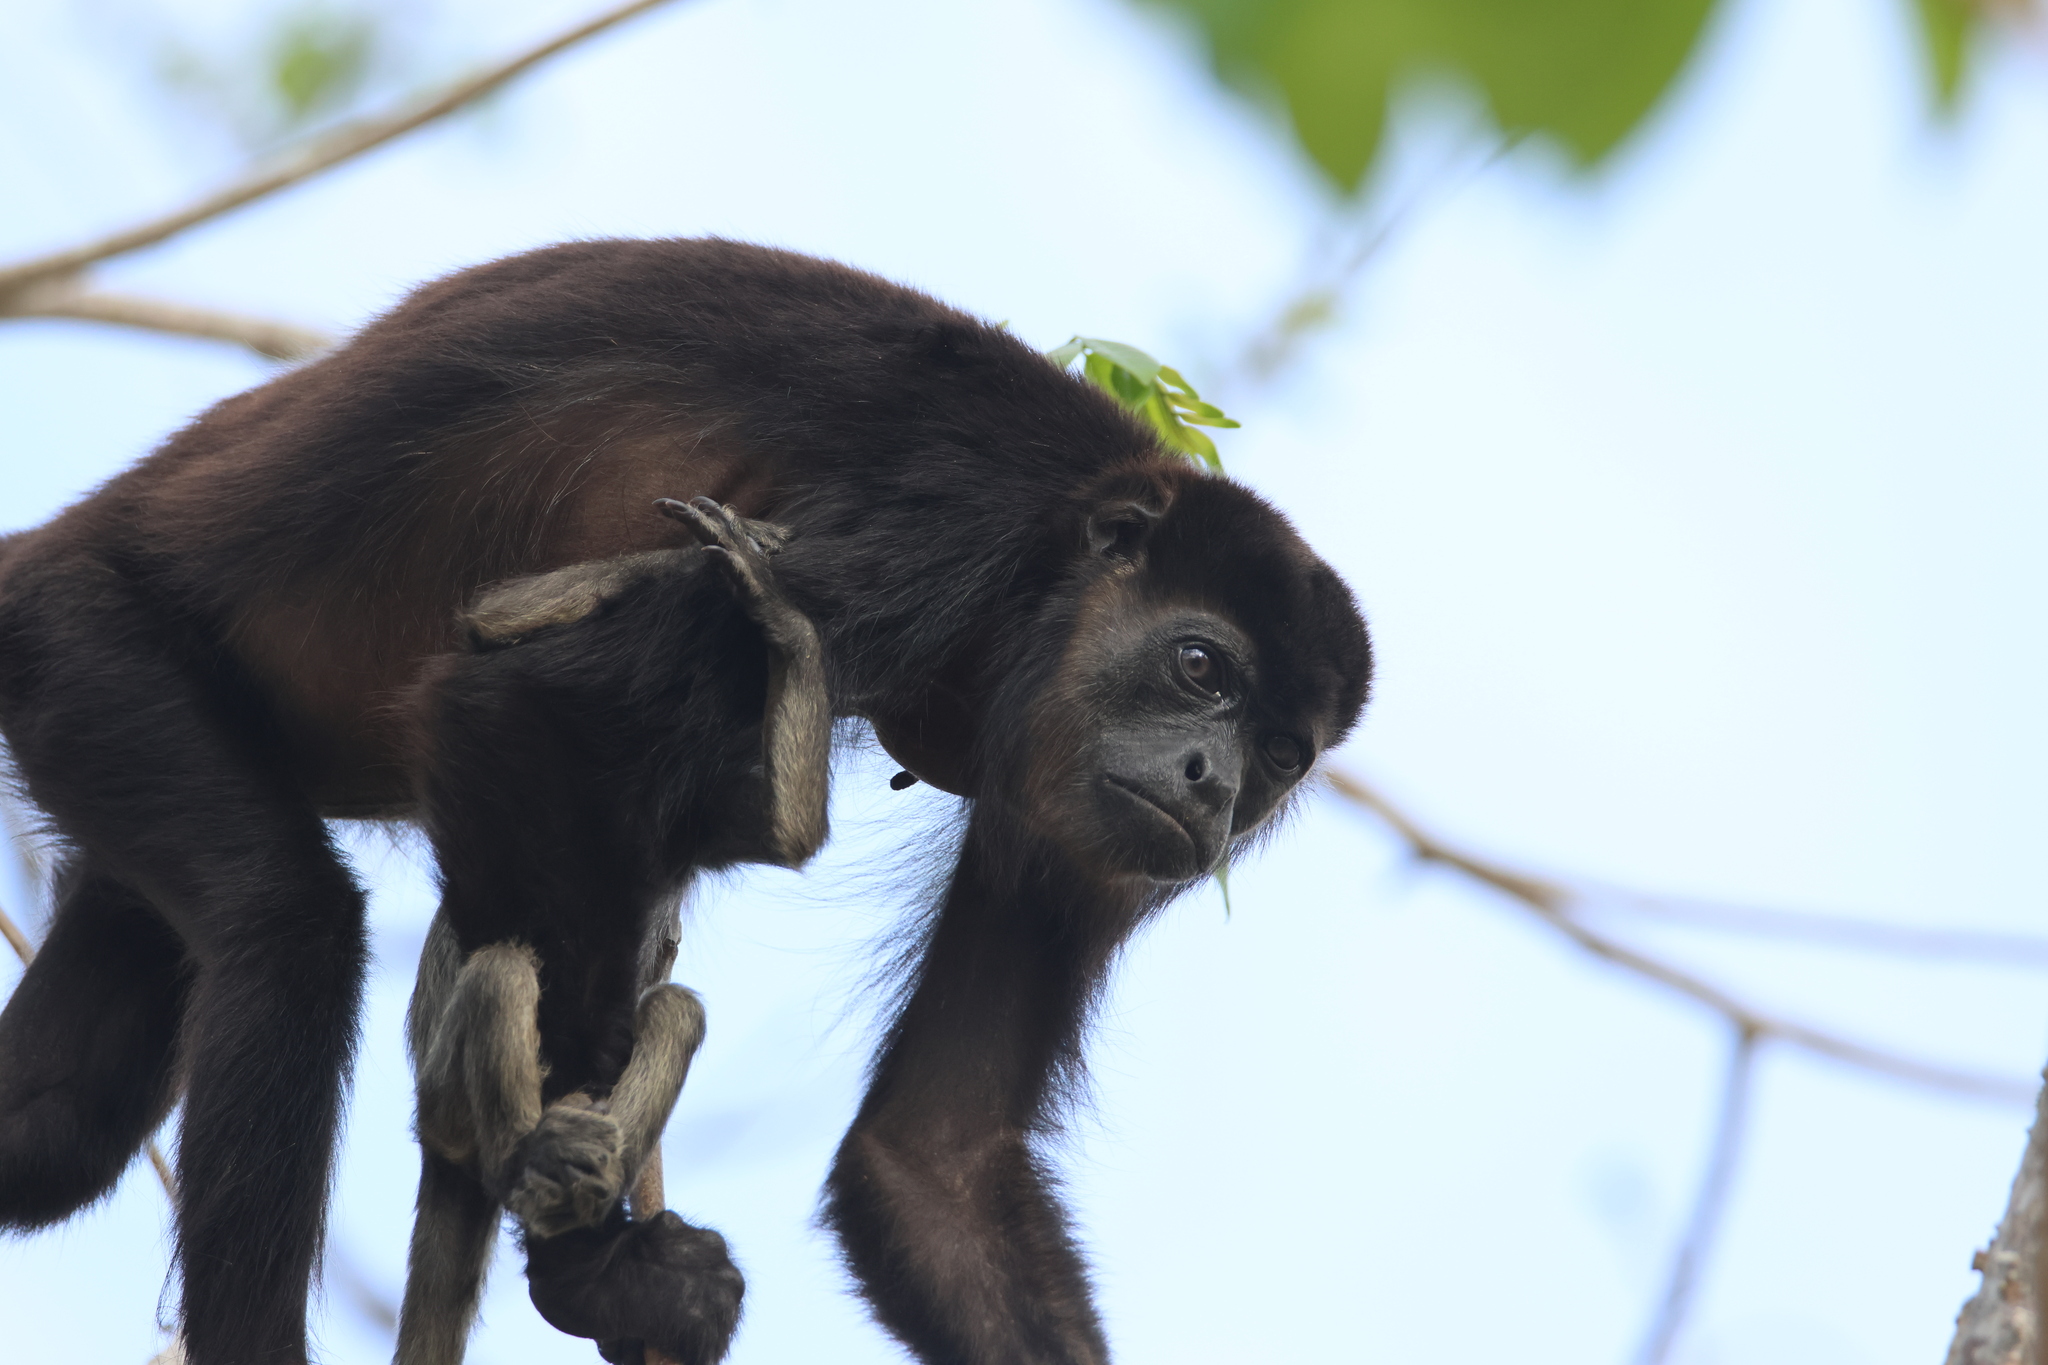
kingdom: Animalia
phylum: Chordata
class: Mammalia
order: Primates
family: Atelidae
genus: Alouatta
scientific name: Alouatta palliata
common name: Mantled howler
